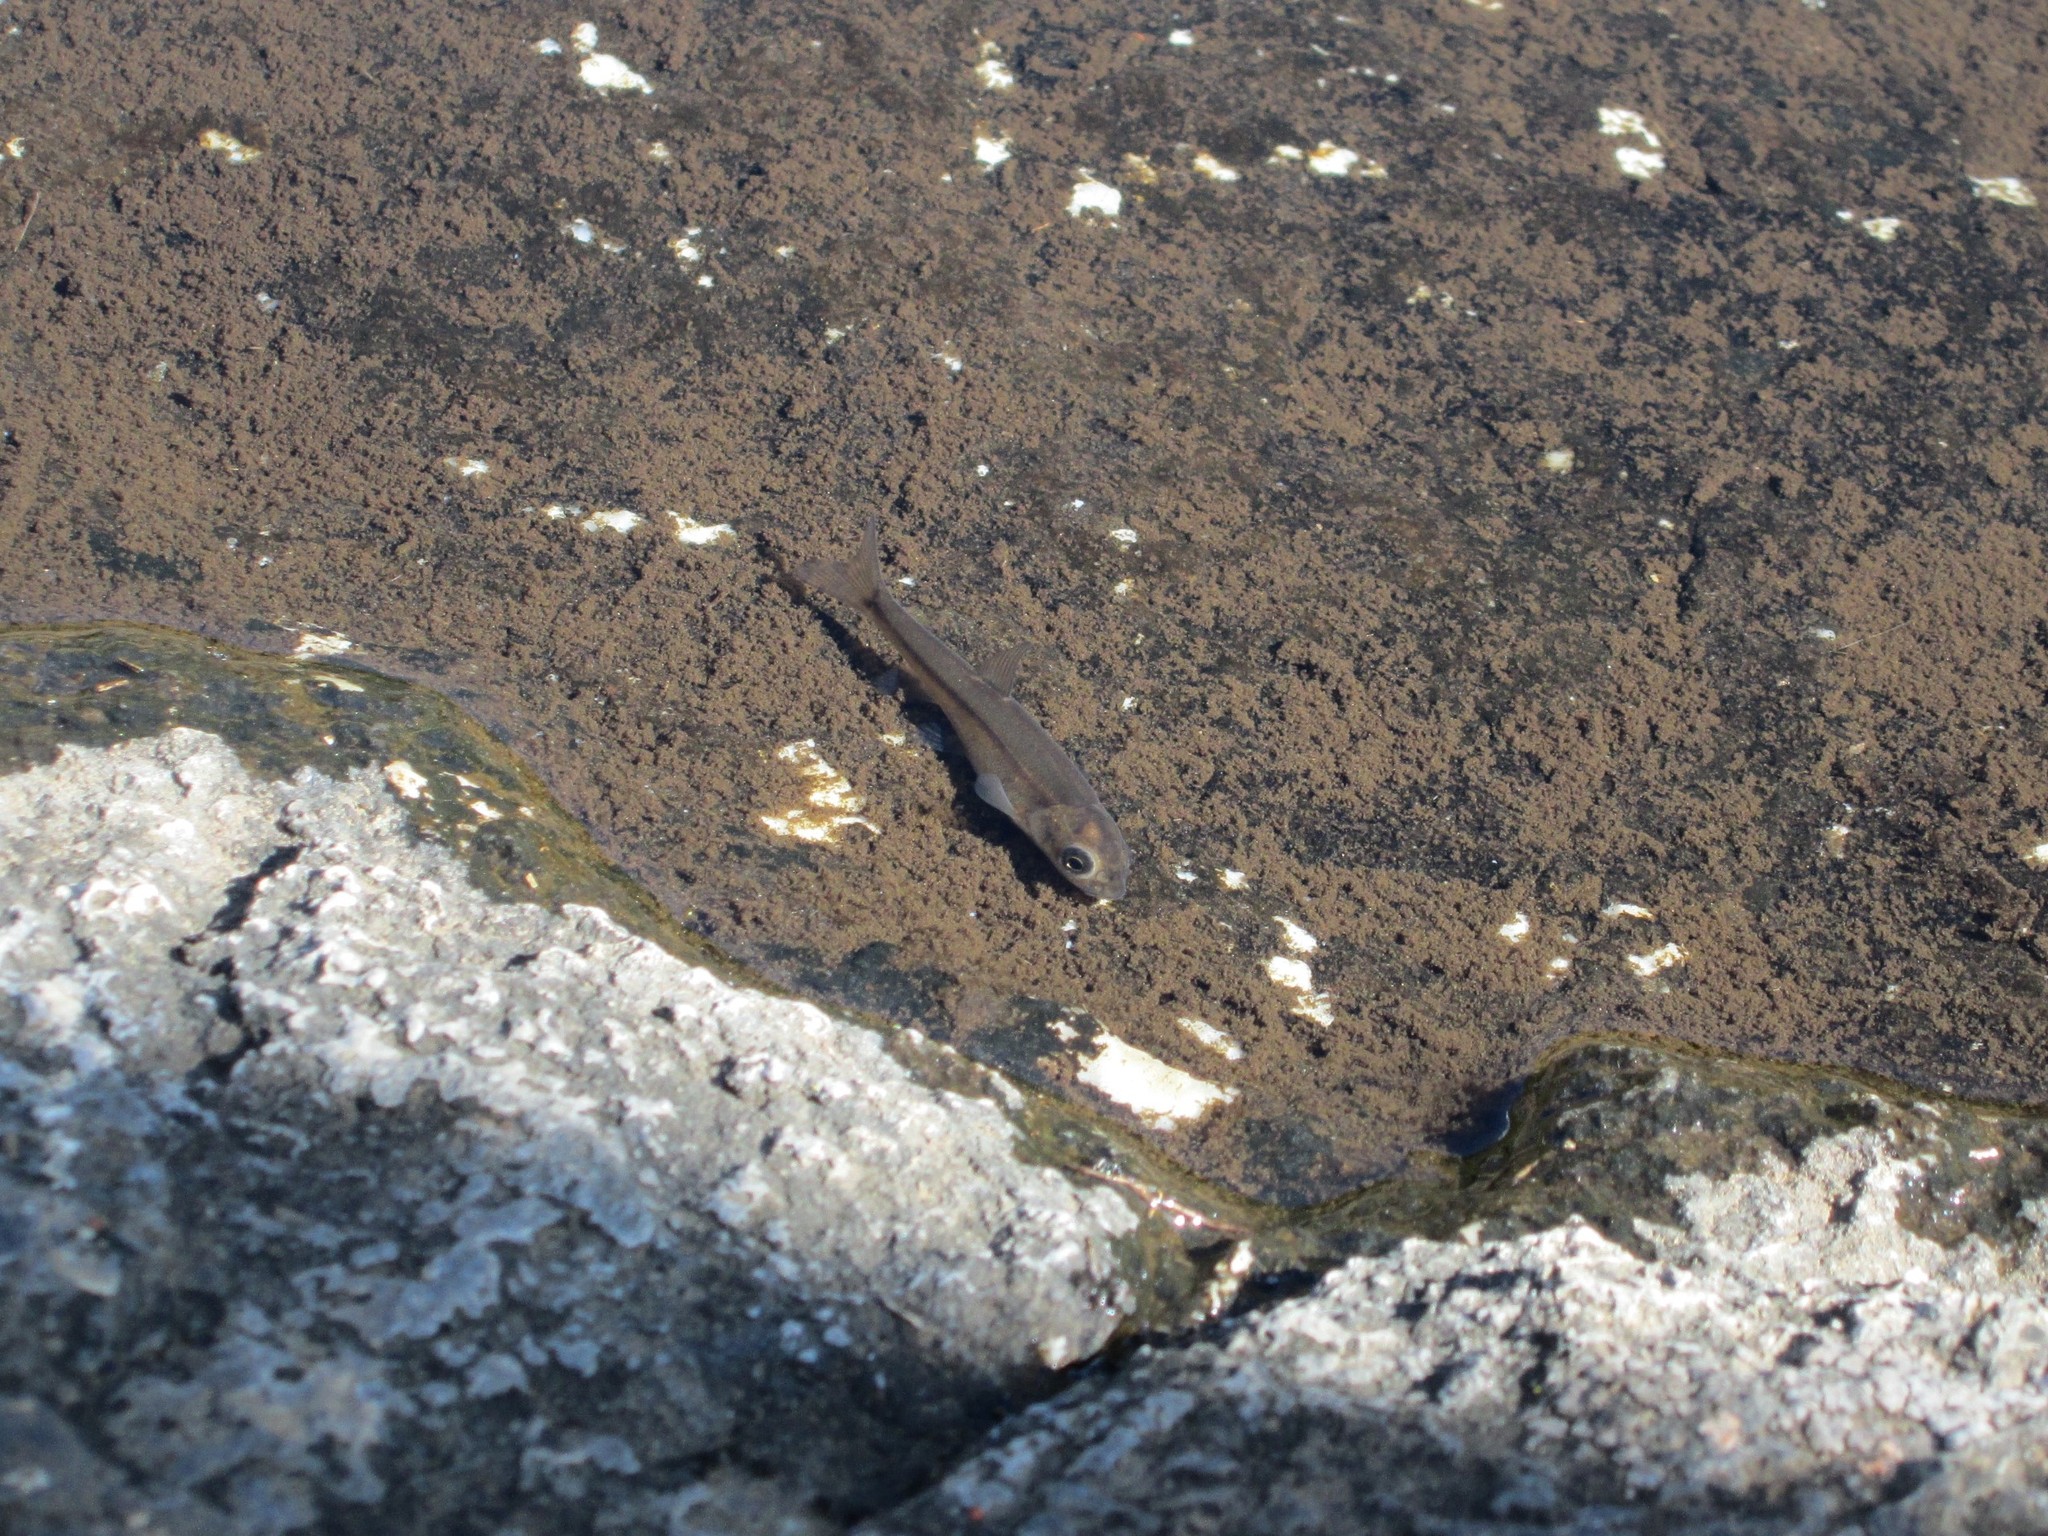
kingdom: Animalia
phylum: Chordata
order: Cypriniformes
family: Cyprinidae
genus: Pseudobarbus
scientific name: Pseudobarbus quathlambae
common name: Maluti minnow
